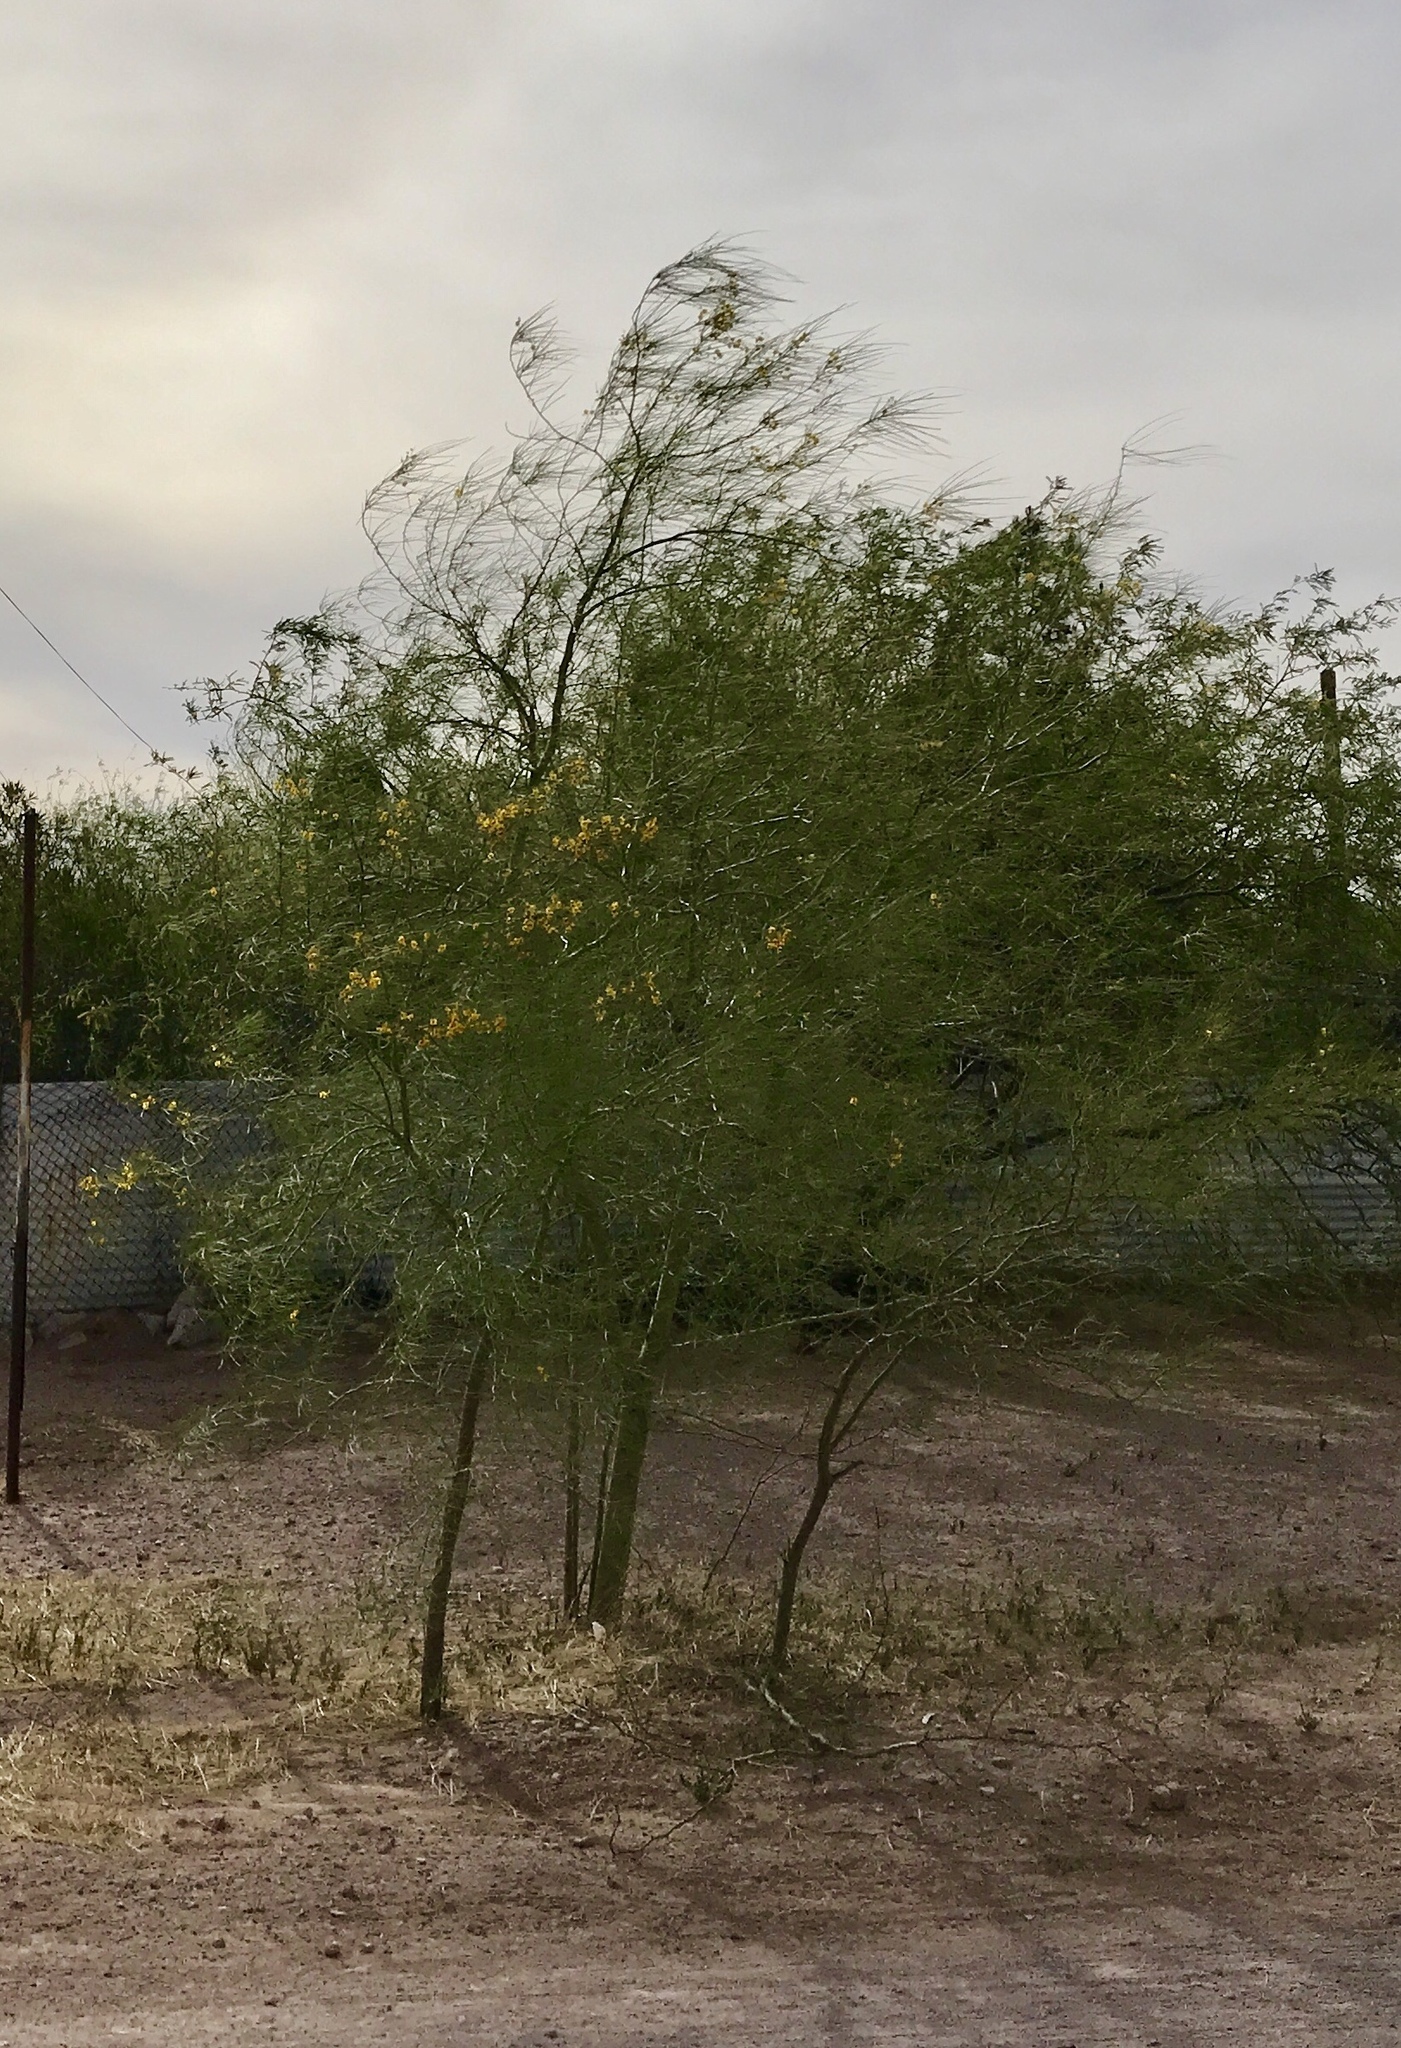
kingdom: Plantae
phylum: Tracheophyta
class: Magnoliopsida
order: Fabales
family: Fabaceae
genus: Parkinsonia
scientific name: Parkinsonia aculeata
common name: Jerusalem thorn
